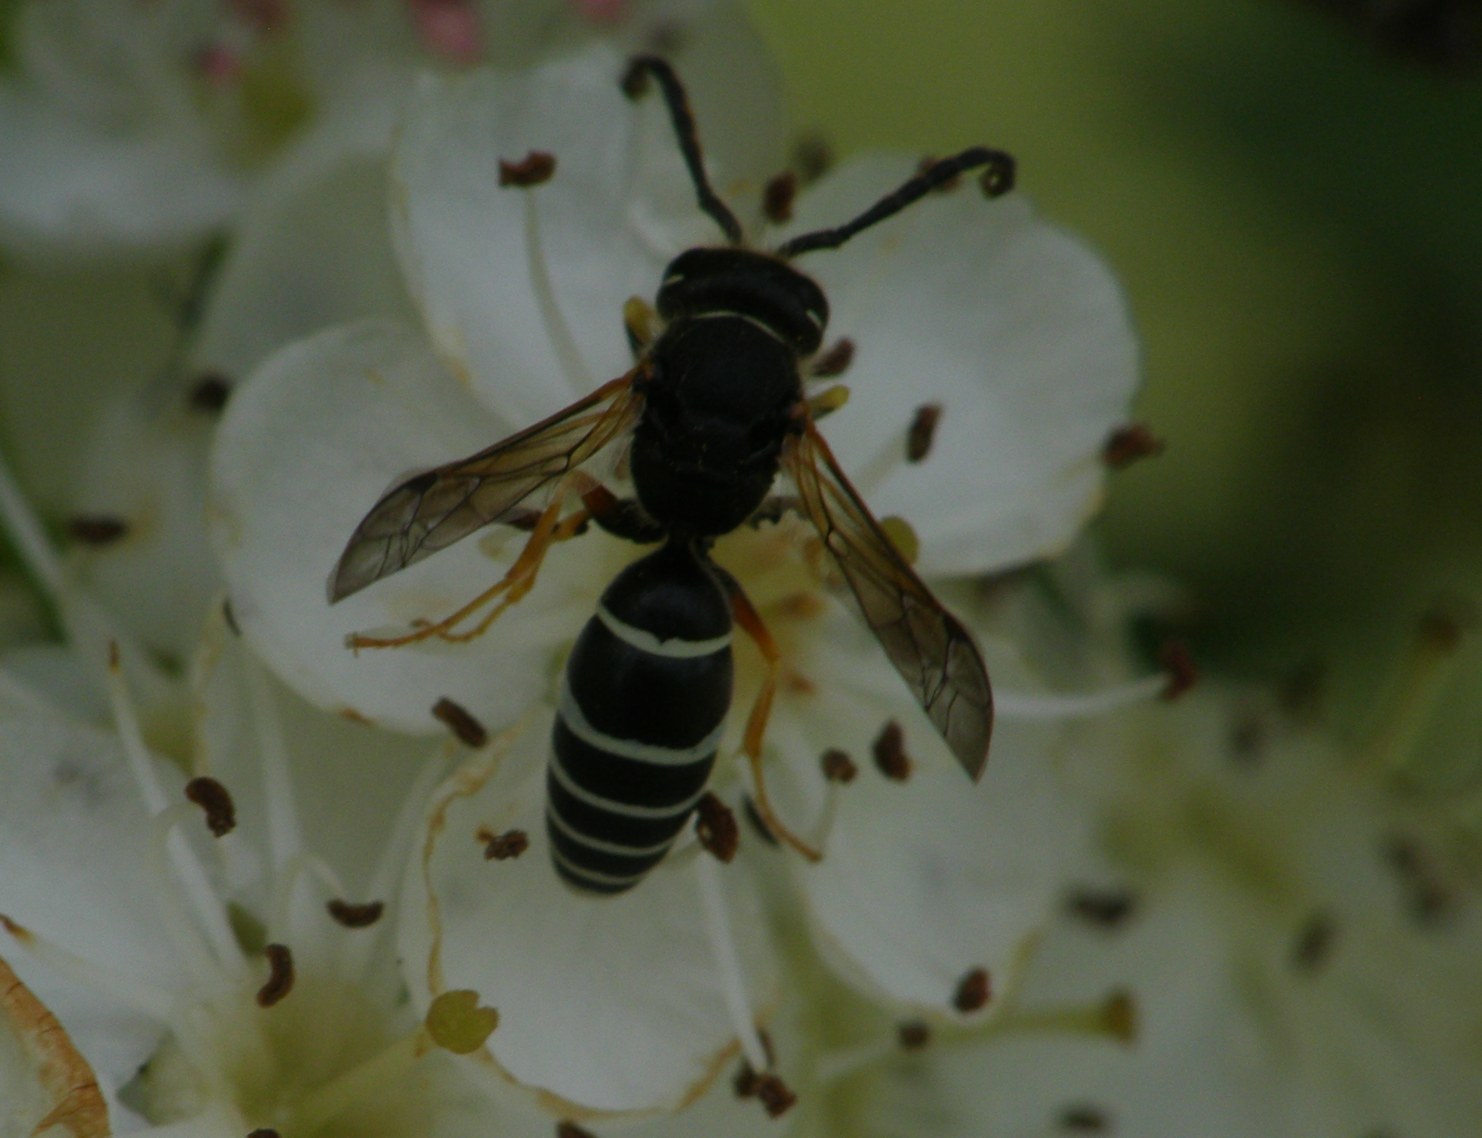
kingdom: Animalia
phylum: Arthropoda
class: Insecta
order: Hymenoptera
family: Vespidae
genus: Odynerus
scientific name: Odynerus melanocephalus
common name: Black headed mason wasp
